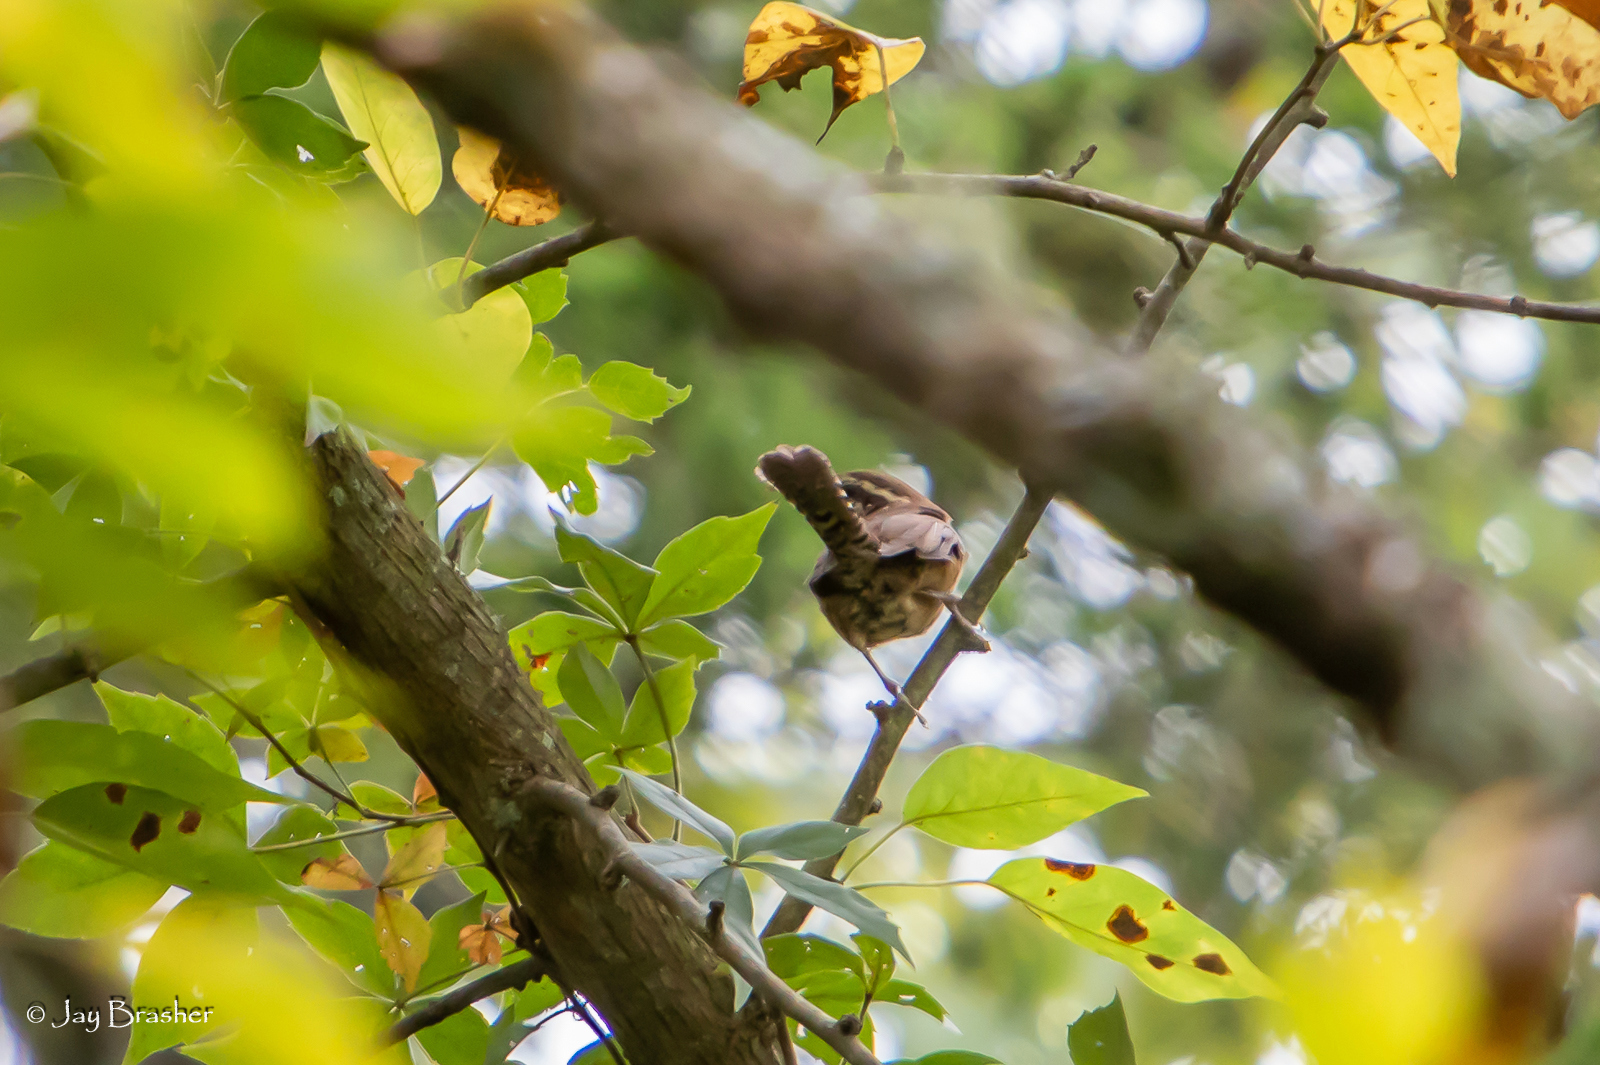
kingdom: Animalia
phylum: Chordata
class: Aves
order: Passeriformes
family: Troglodytidae
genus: Thryothorus
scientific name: Thryothorus ludovicianus
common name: Carolina wren
